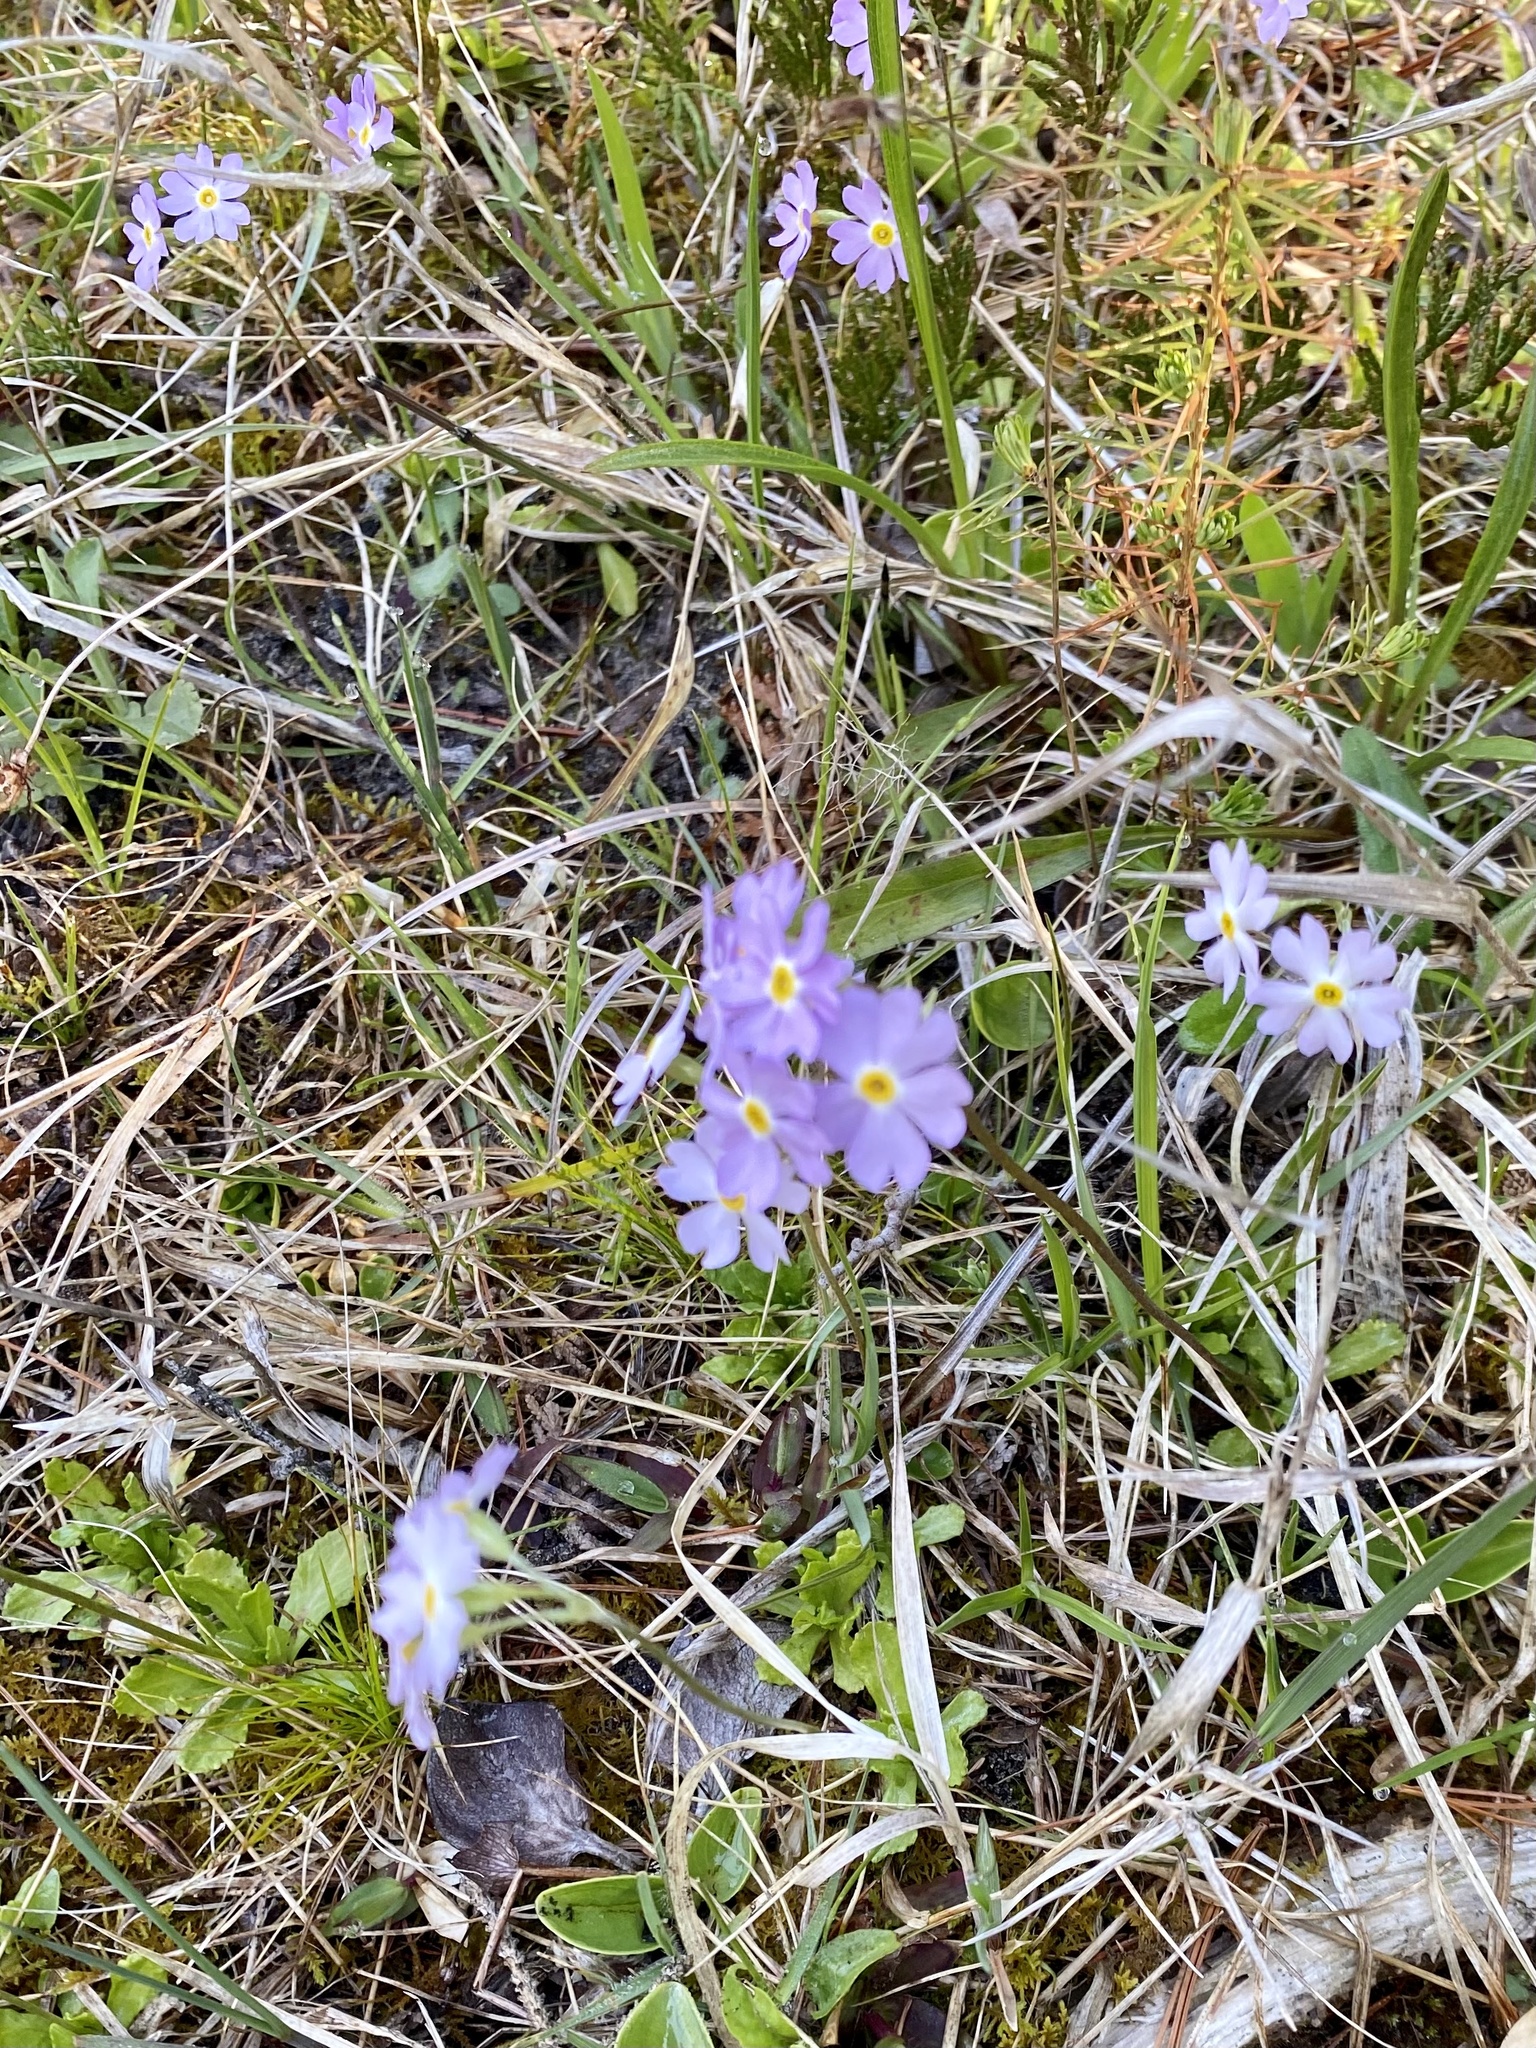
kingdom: Plantae
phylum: Tracheophyta
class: Magnoliopsida
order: Ericales
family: Primulaceae
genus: Primula
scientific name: Primula mistassinica
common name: Bird's-eye primrose
